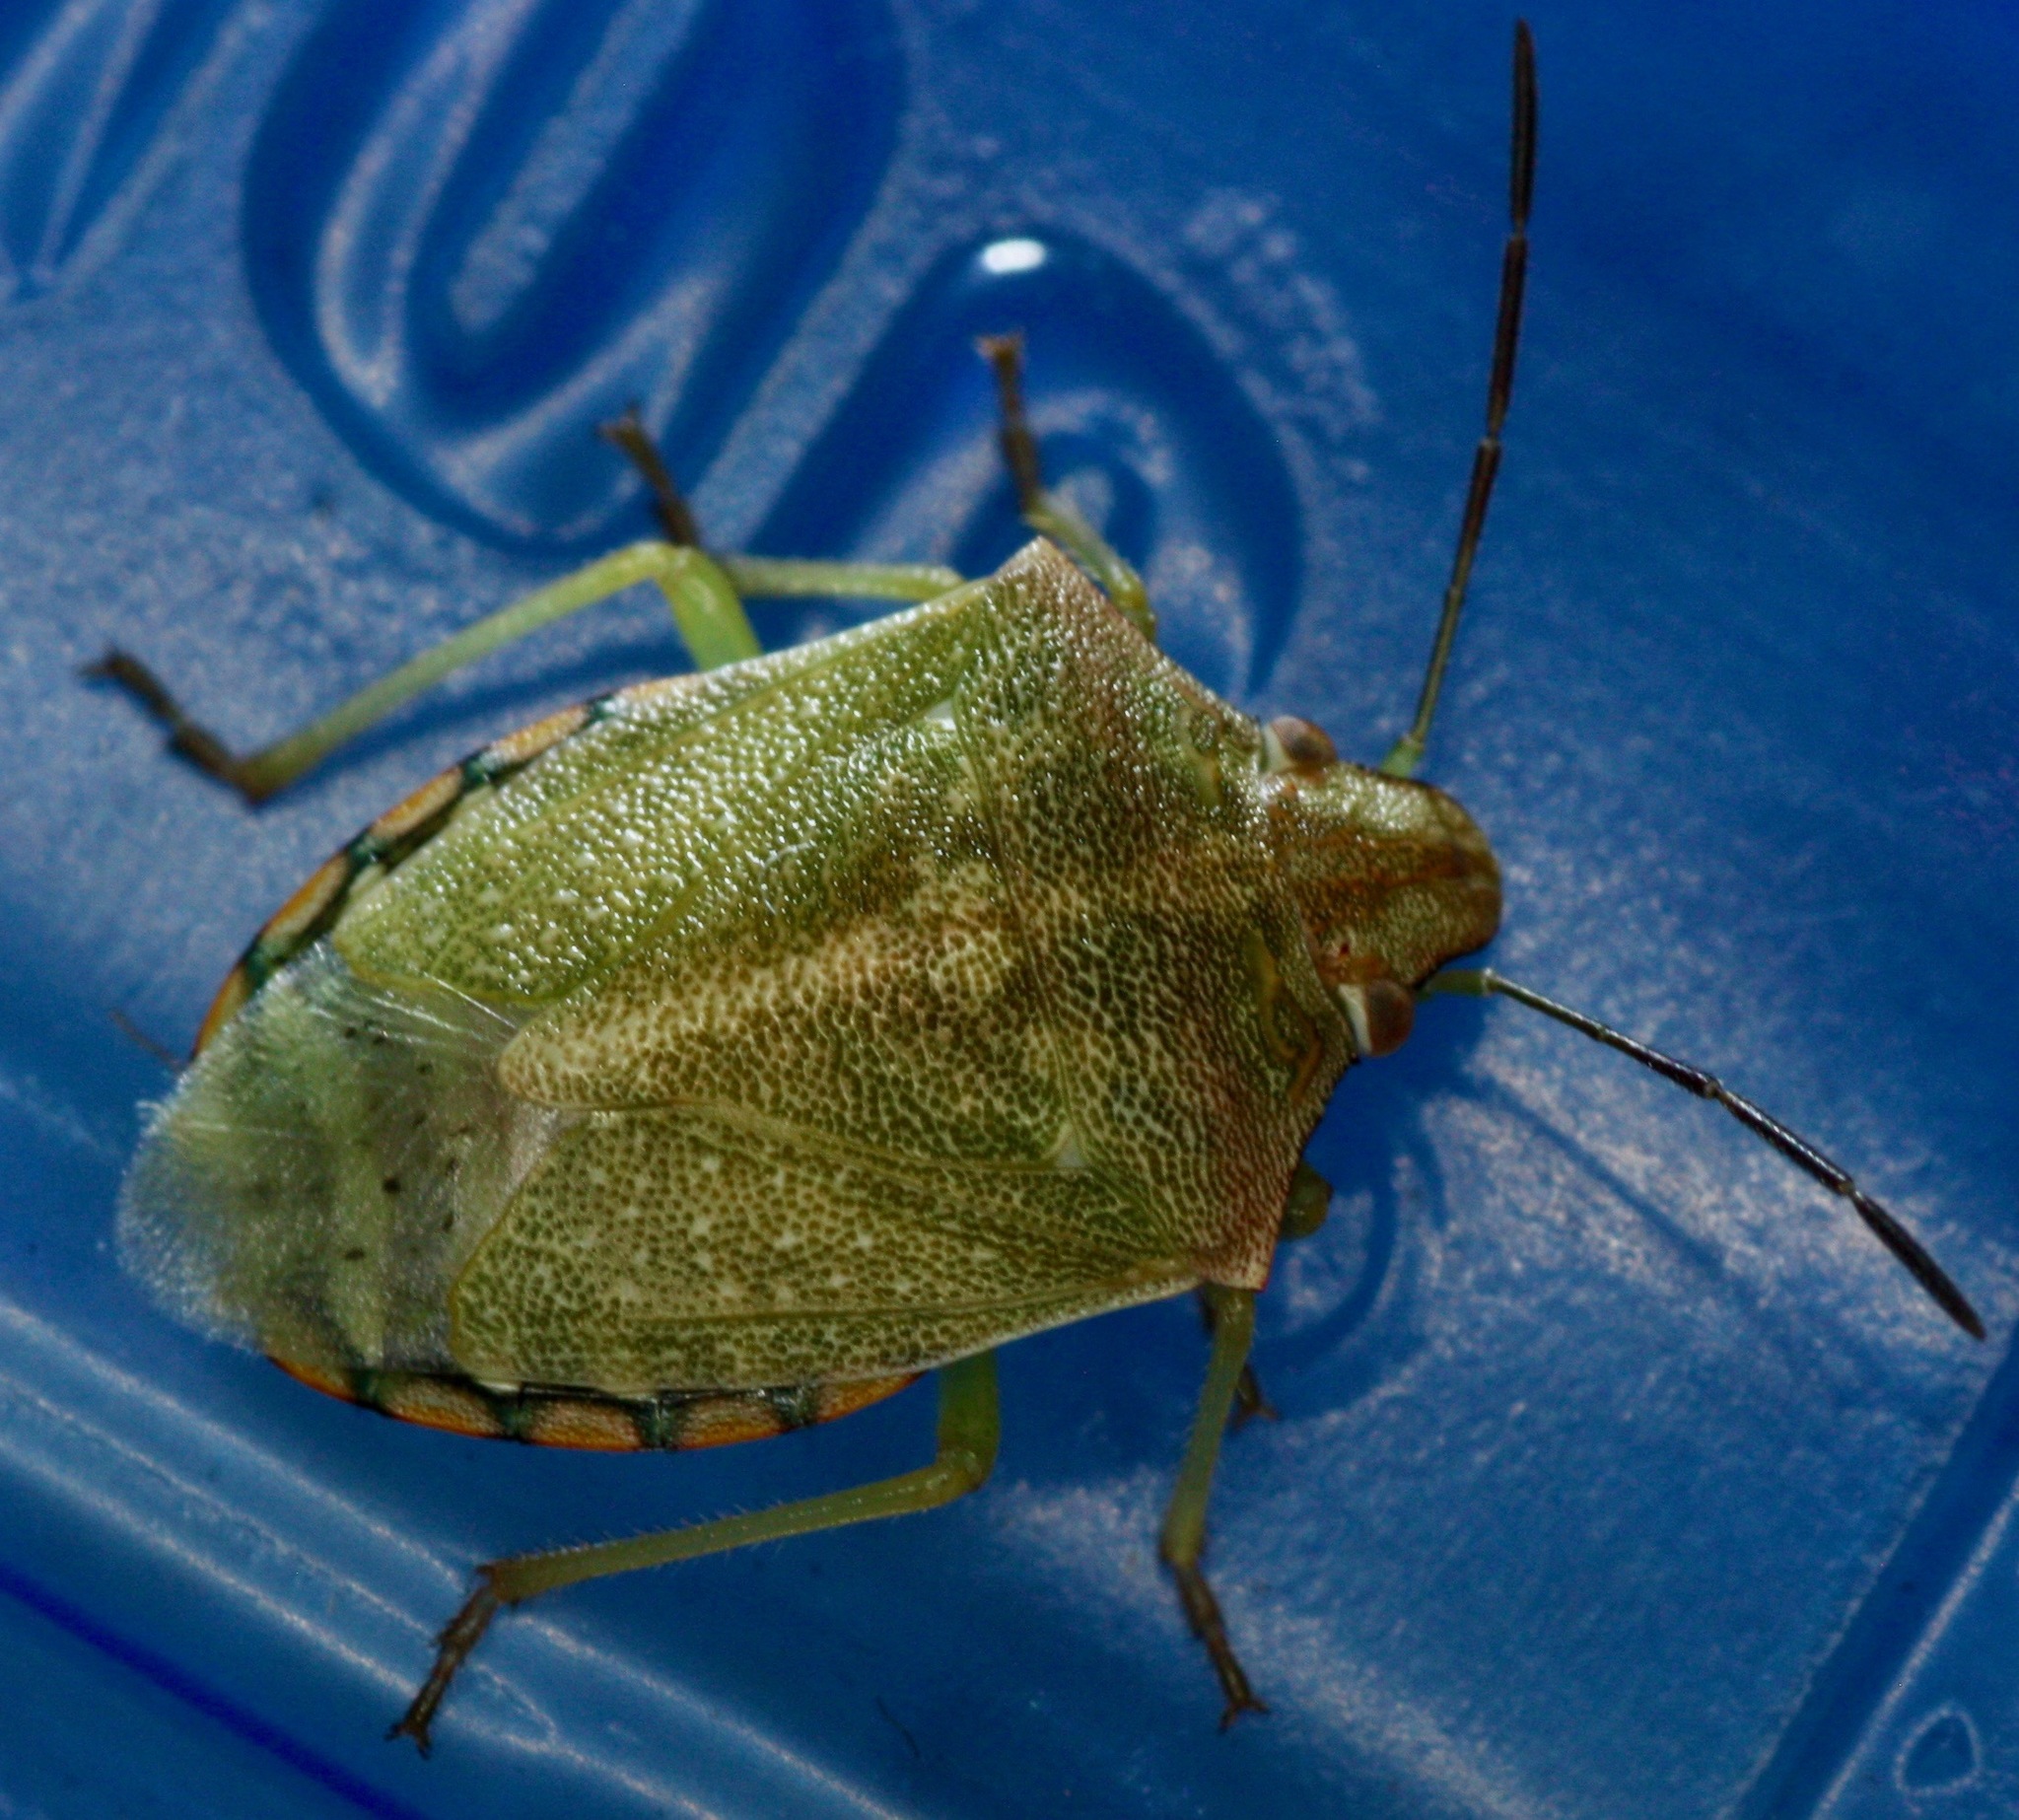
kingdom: Animalia
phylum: Arthropoda
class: Insecta
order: Hemiptera
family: Pentatomidae
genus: Thyanta
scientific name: Thyanta accerra
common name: Stink bug
